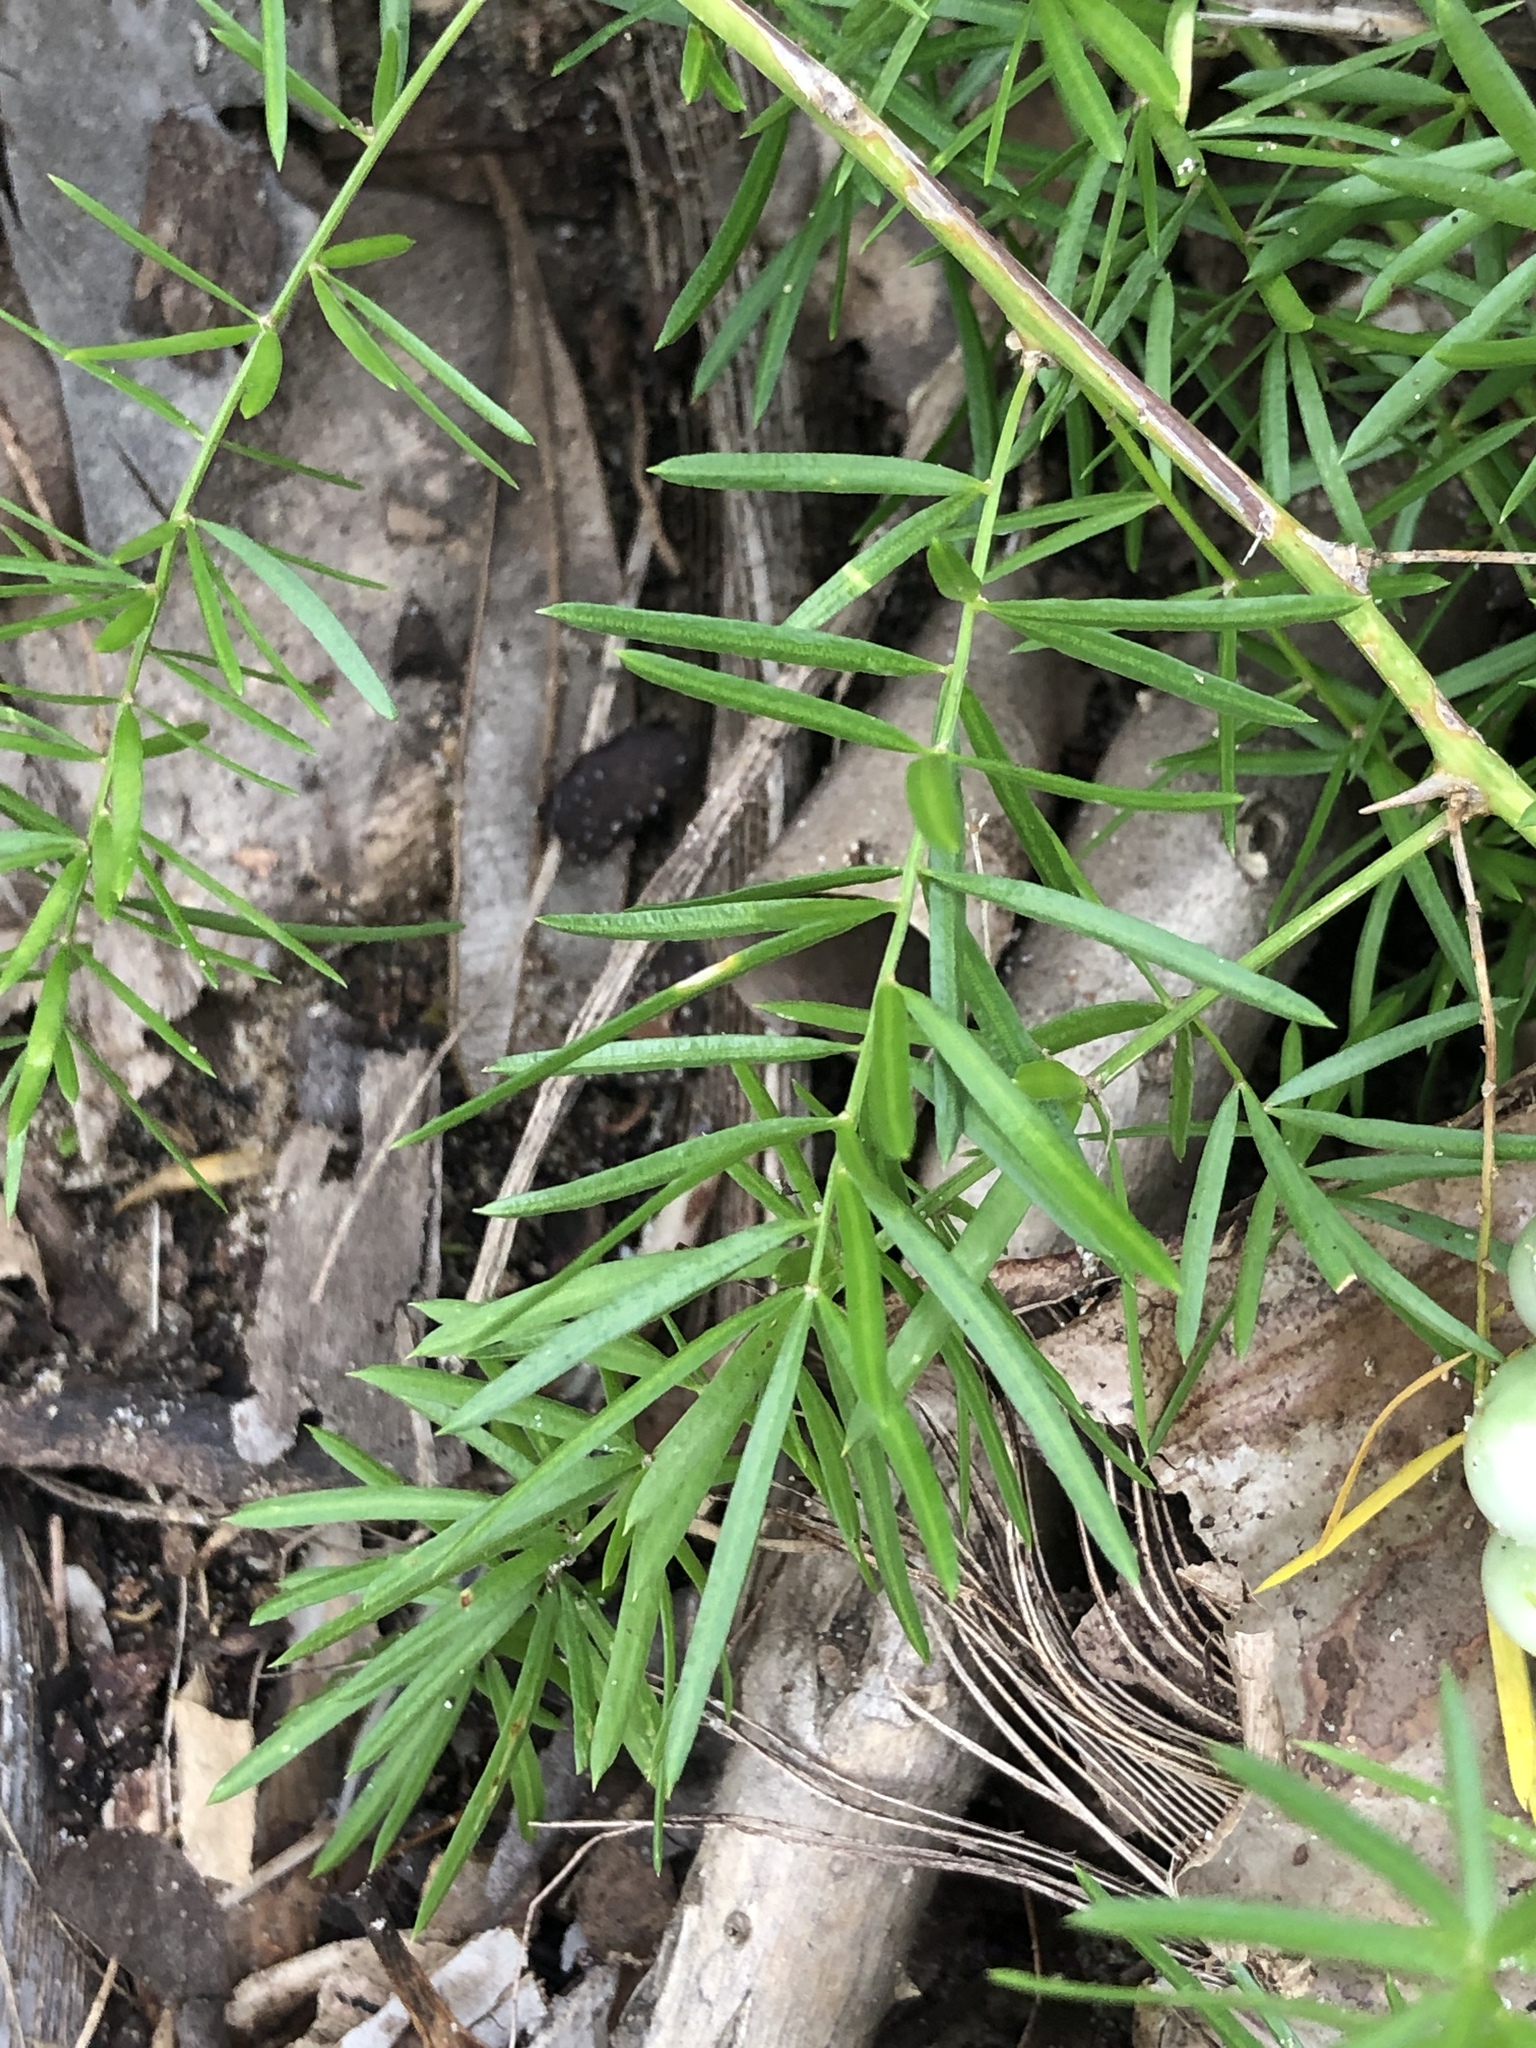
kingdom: Plantae
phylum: Tracheophyta
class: Liliopsida
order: Asparagales
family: Asparagaceae
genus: Asparagus
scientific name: Asparagus aethiopicus
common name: Sprenger's asparagus fern
